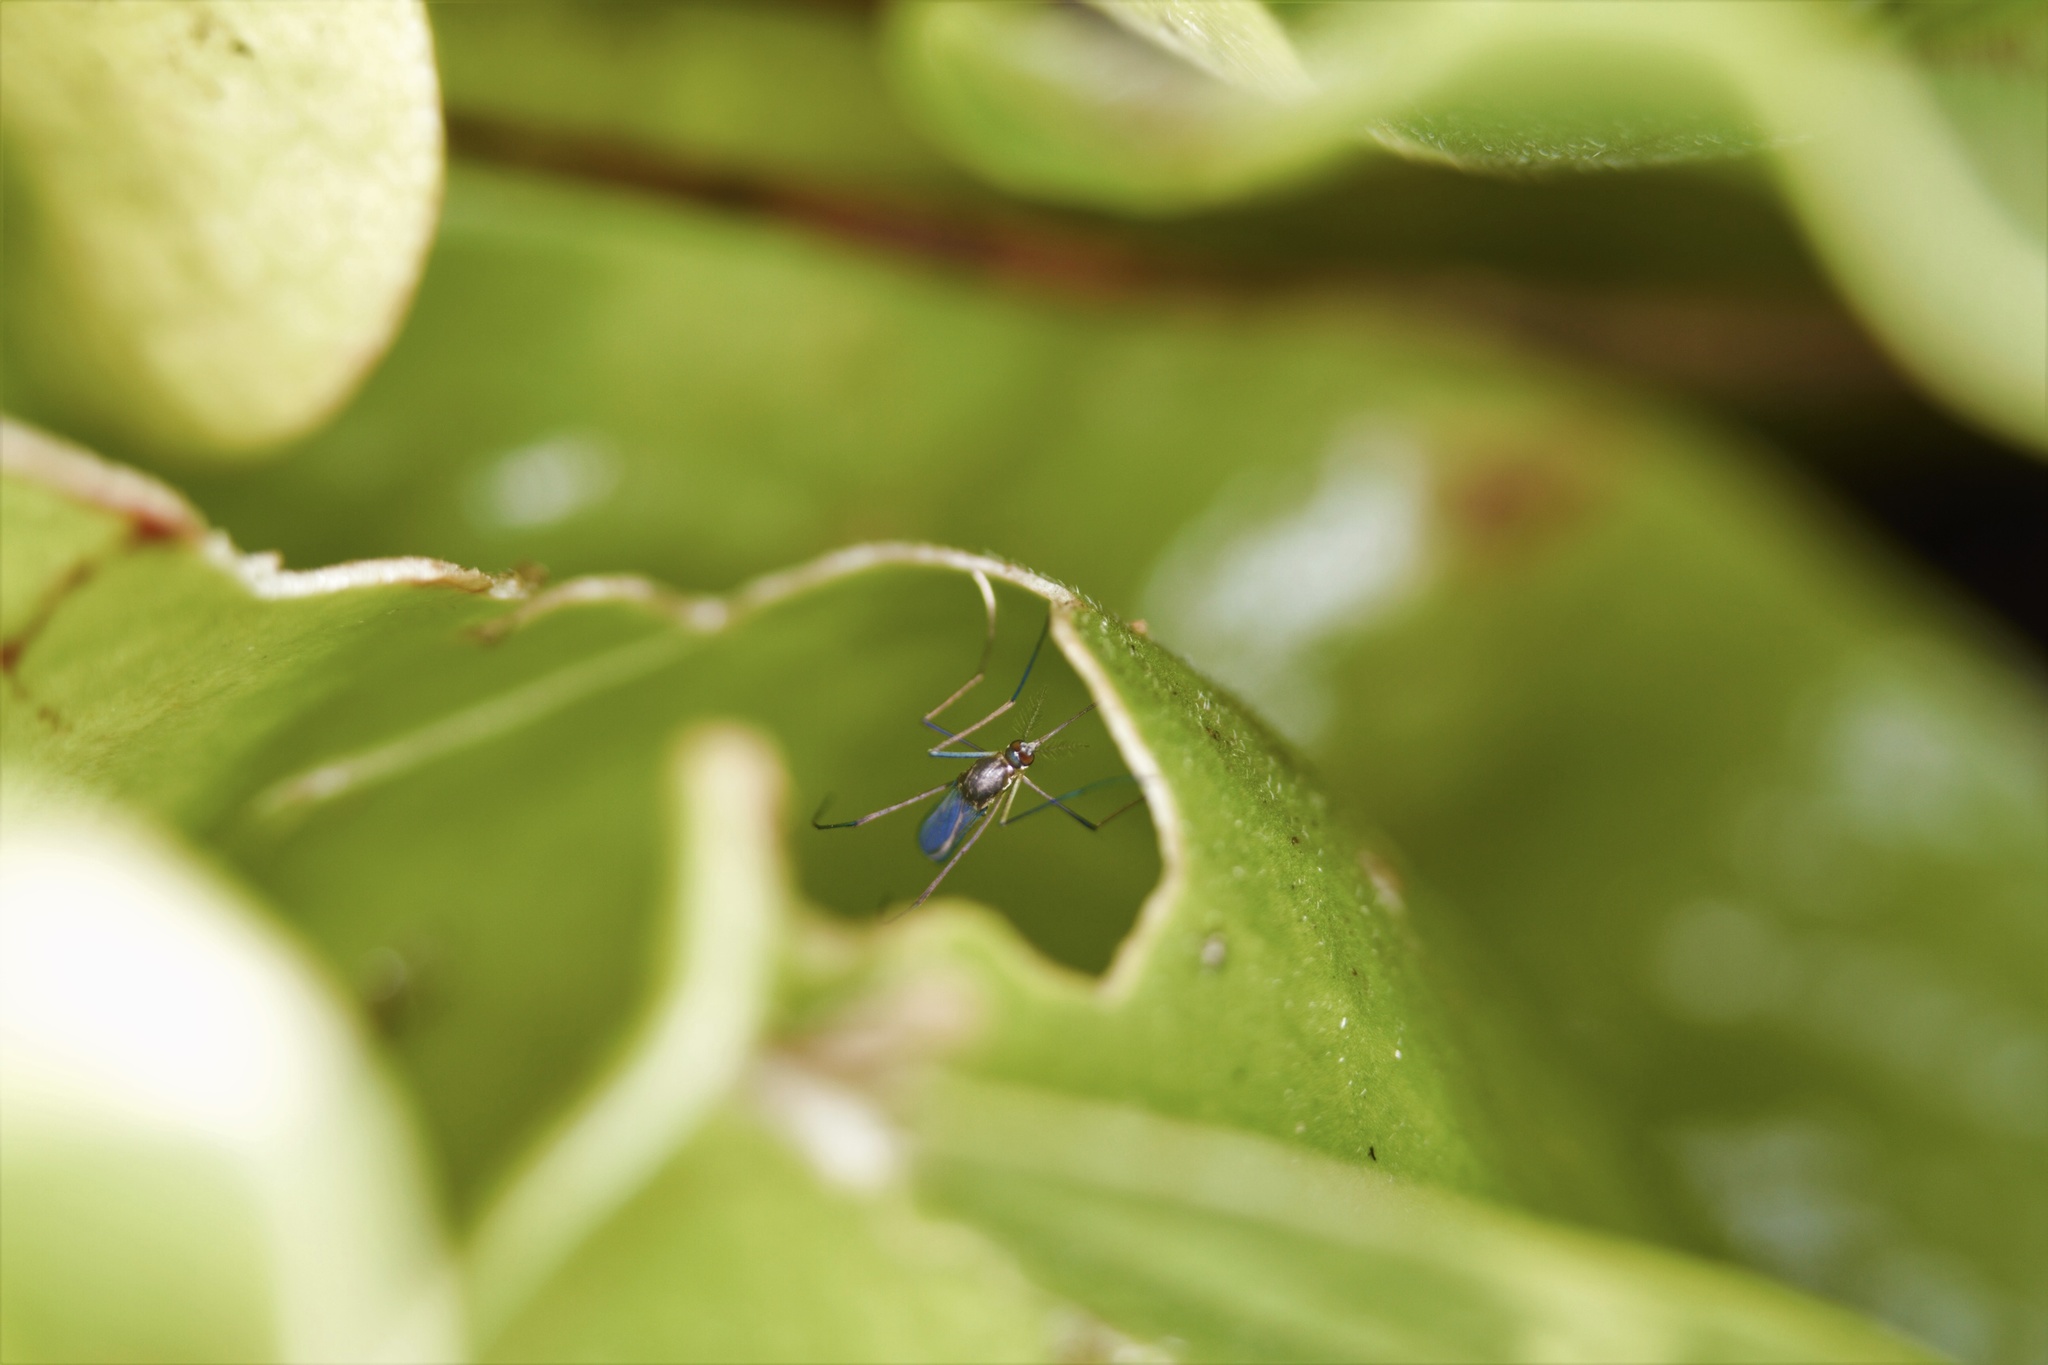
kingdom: Animalia
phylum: Arthropoda
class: Insecta
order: Diptera
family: Culicidae
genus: Wyeomyia
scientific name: Wyeomyia smithii
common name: Pitcher-plant mosquito
